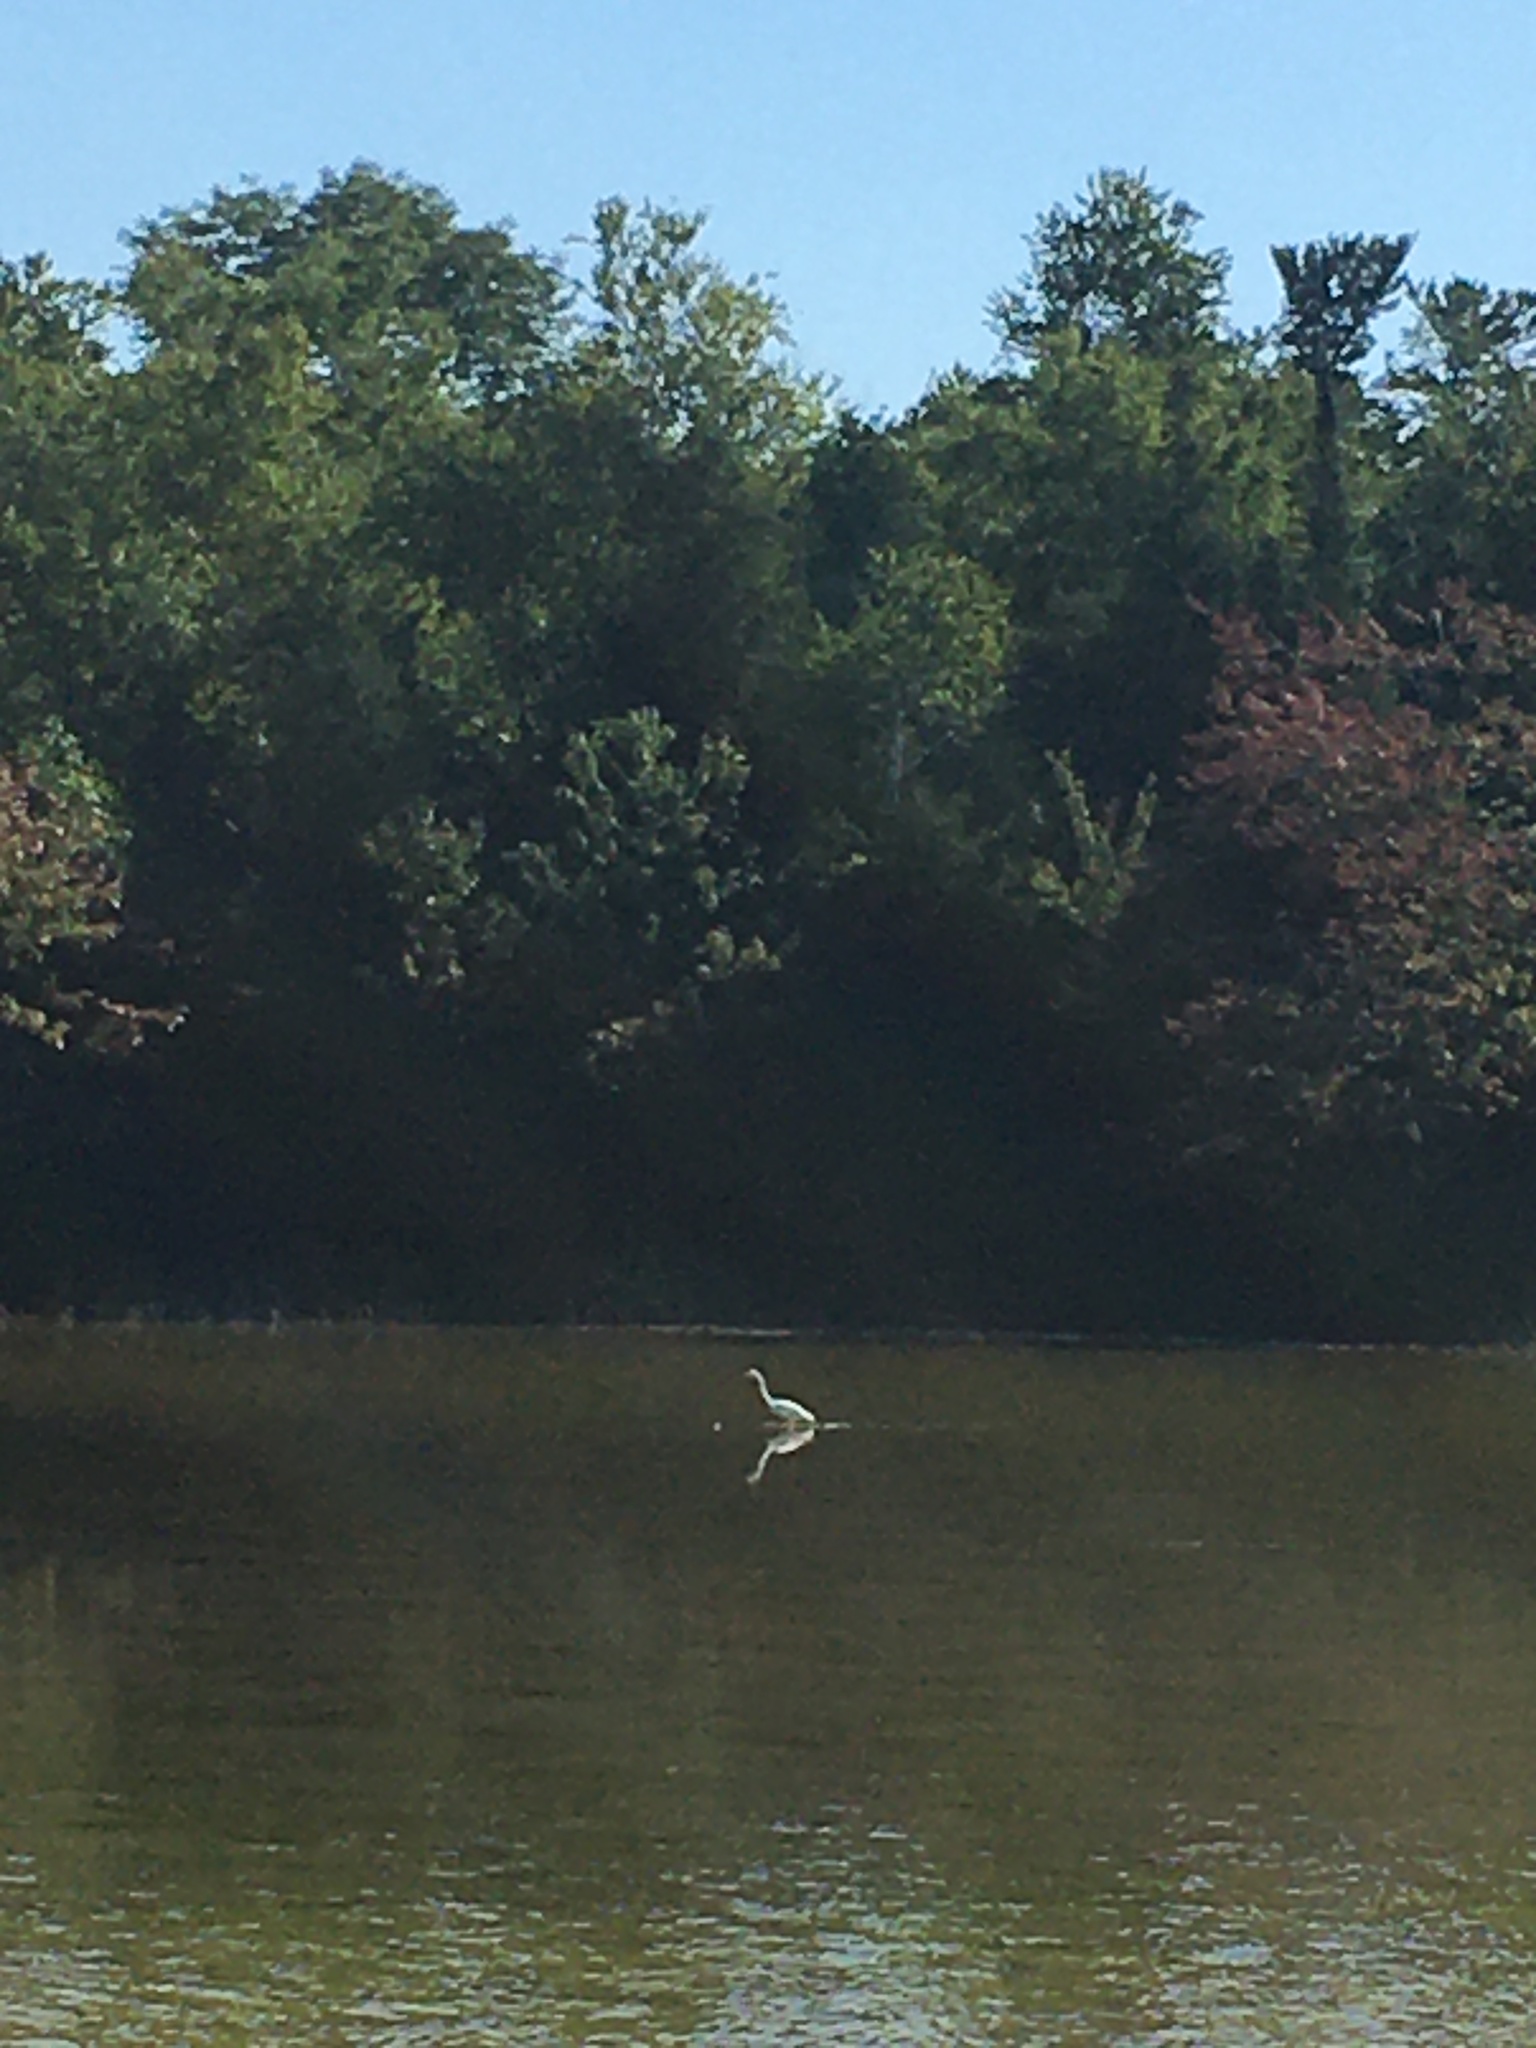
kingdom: Animalia
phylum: Chordata
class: Aves
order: Pelecaniformes
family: Ardeidae
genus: Ardea
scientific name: Ardea alba
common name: Great egret
